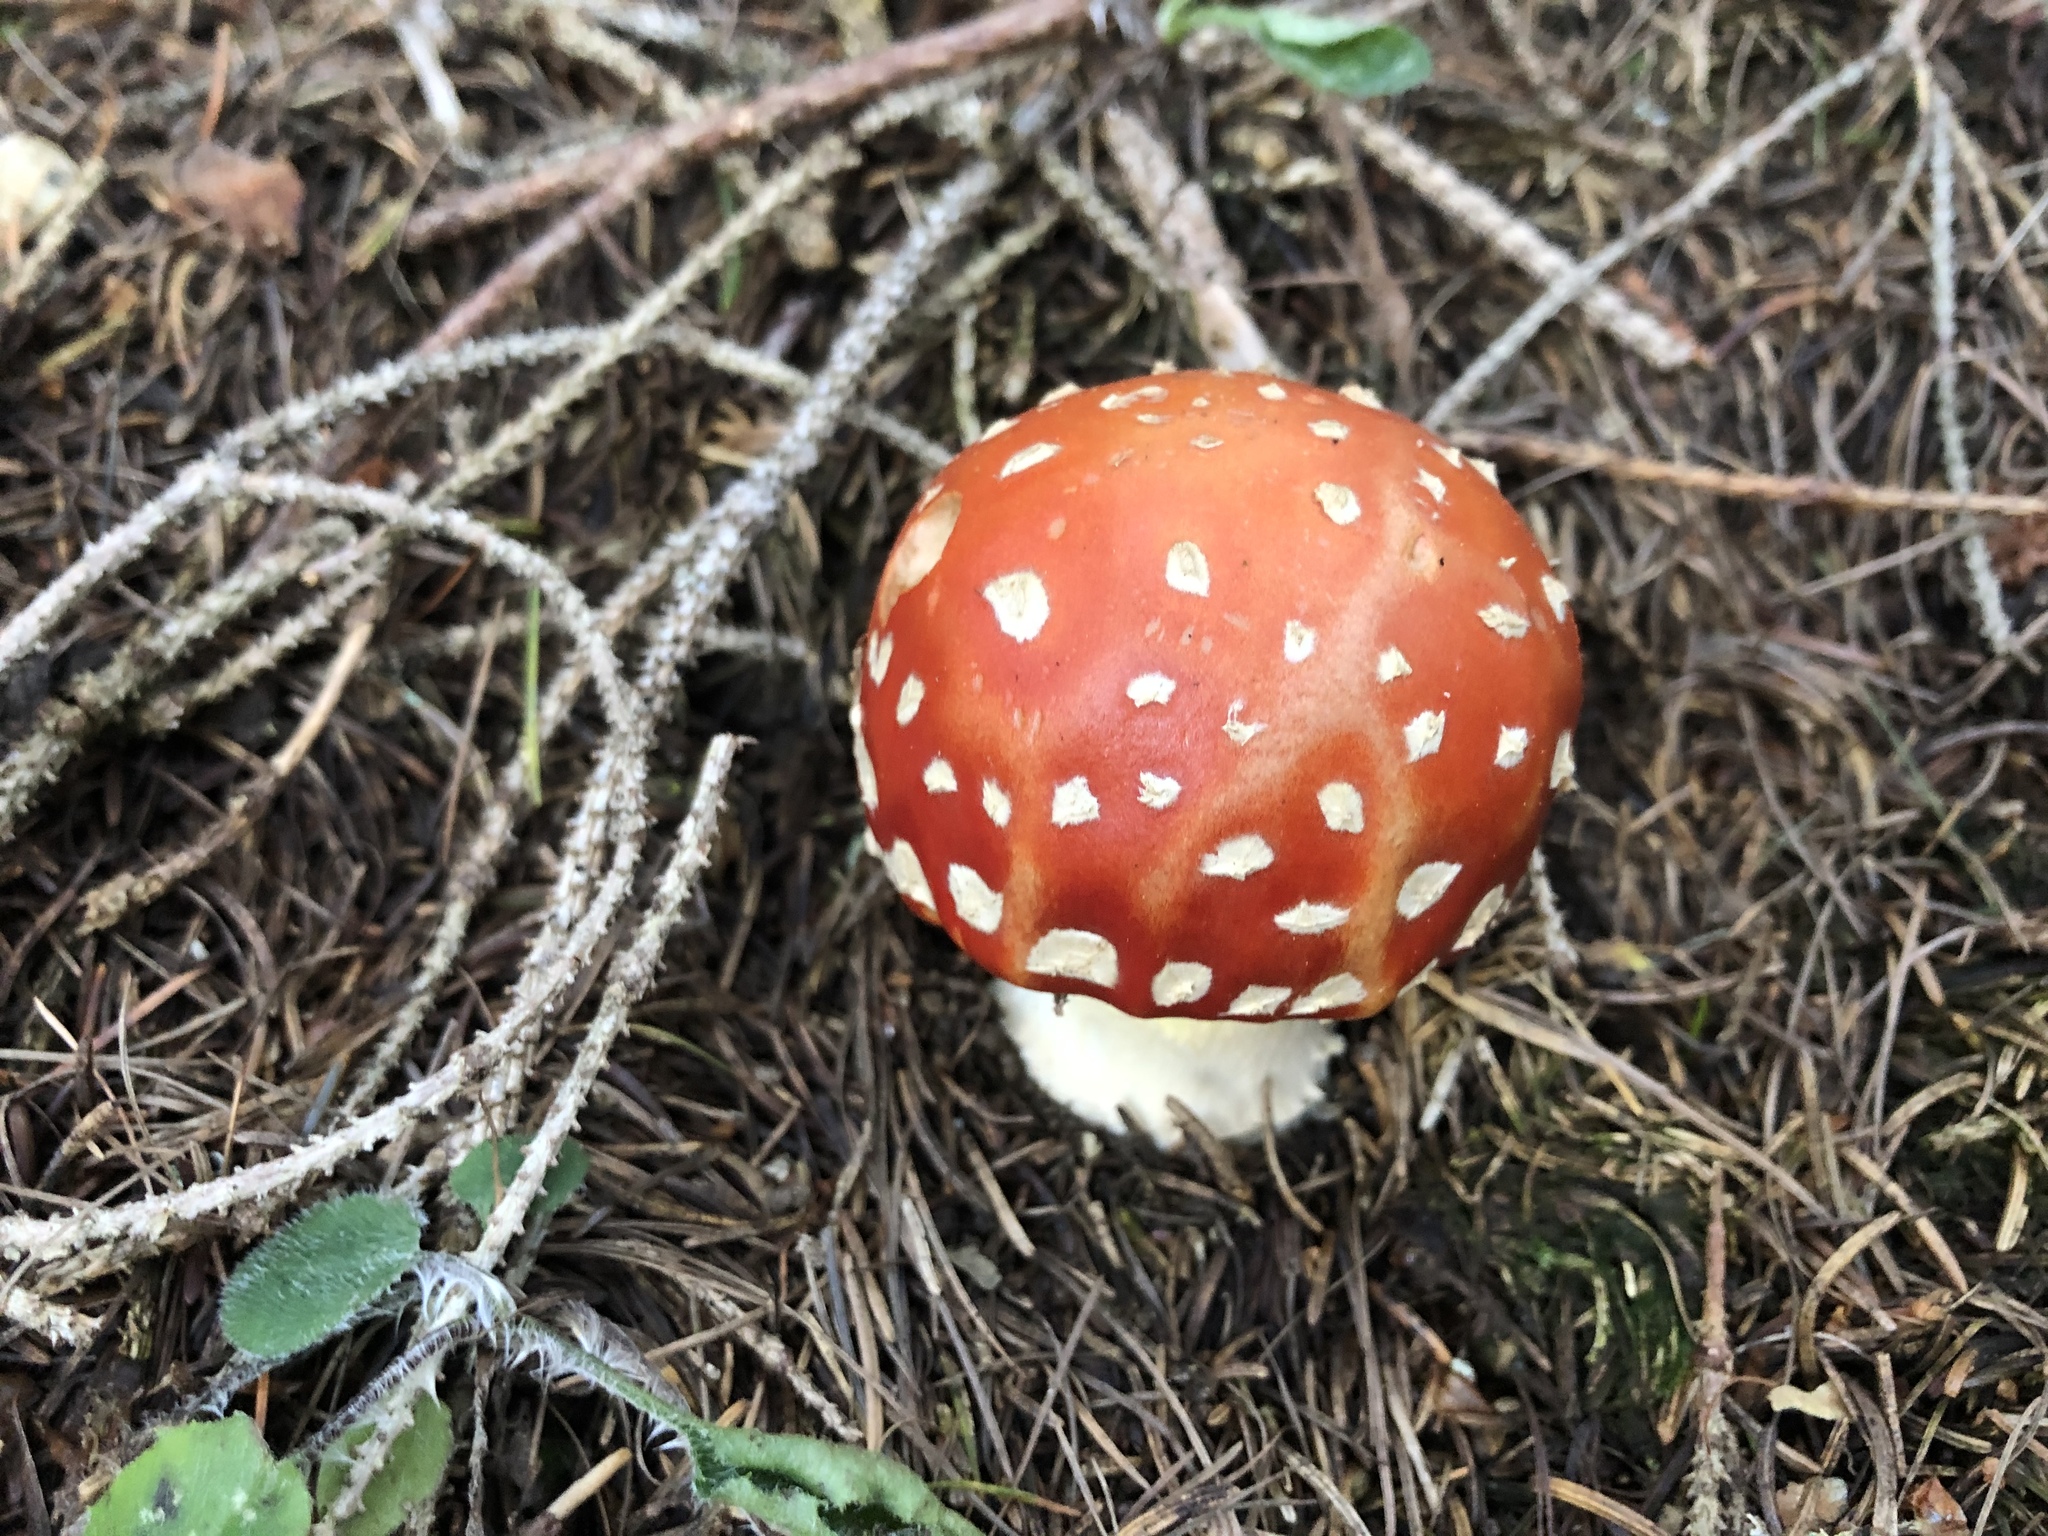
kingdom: Fungi
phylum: Basidiomycota
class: Agaricomycetes
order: Agaricales
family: Amanitaceae
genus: Amanita
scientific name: Amanita muscaria
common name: Fly agaric
